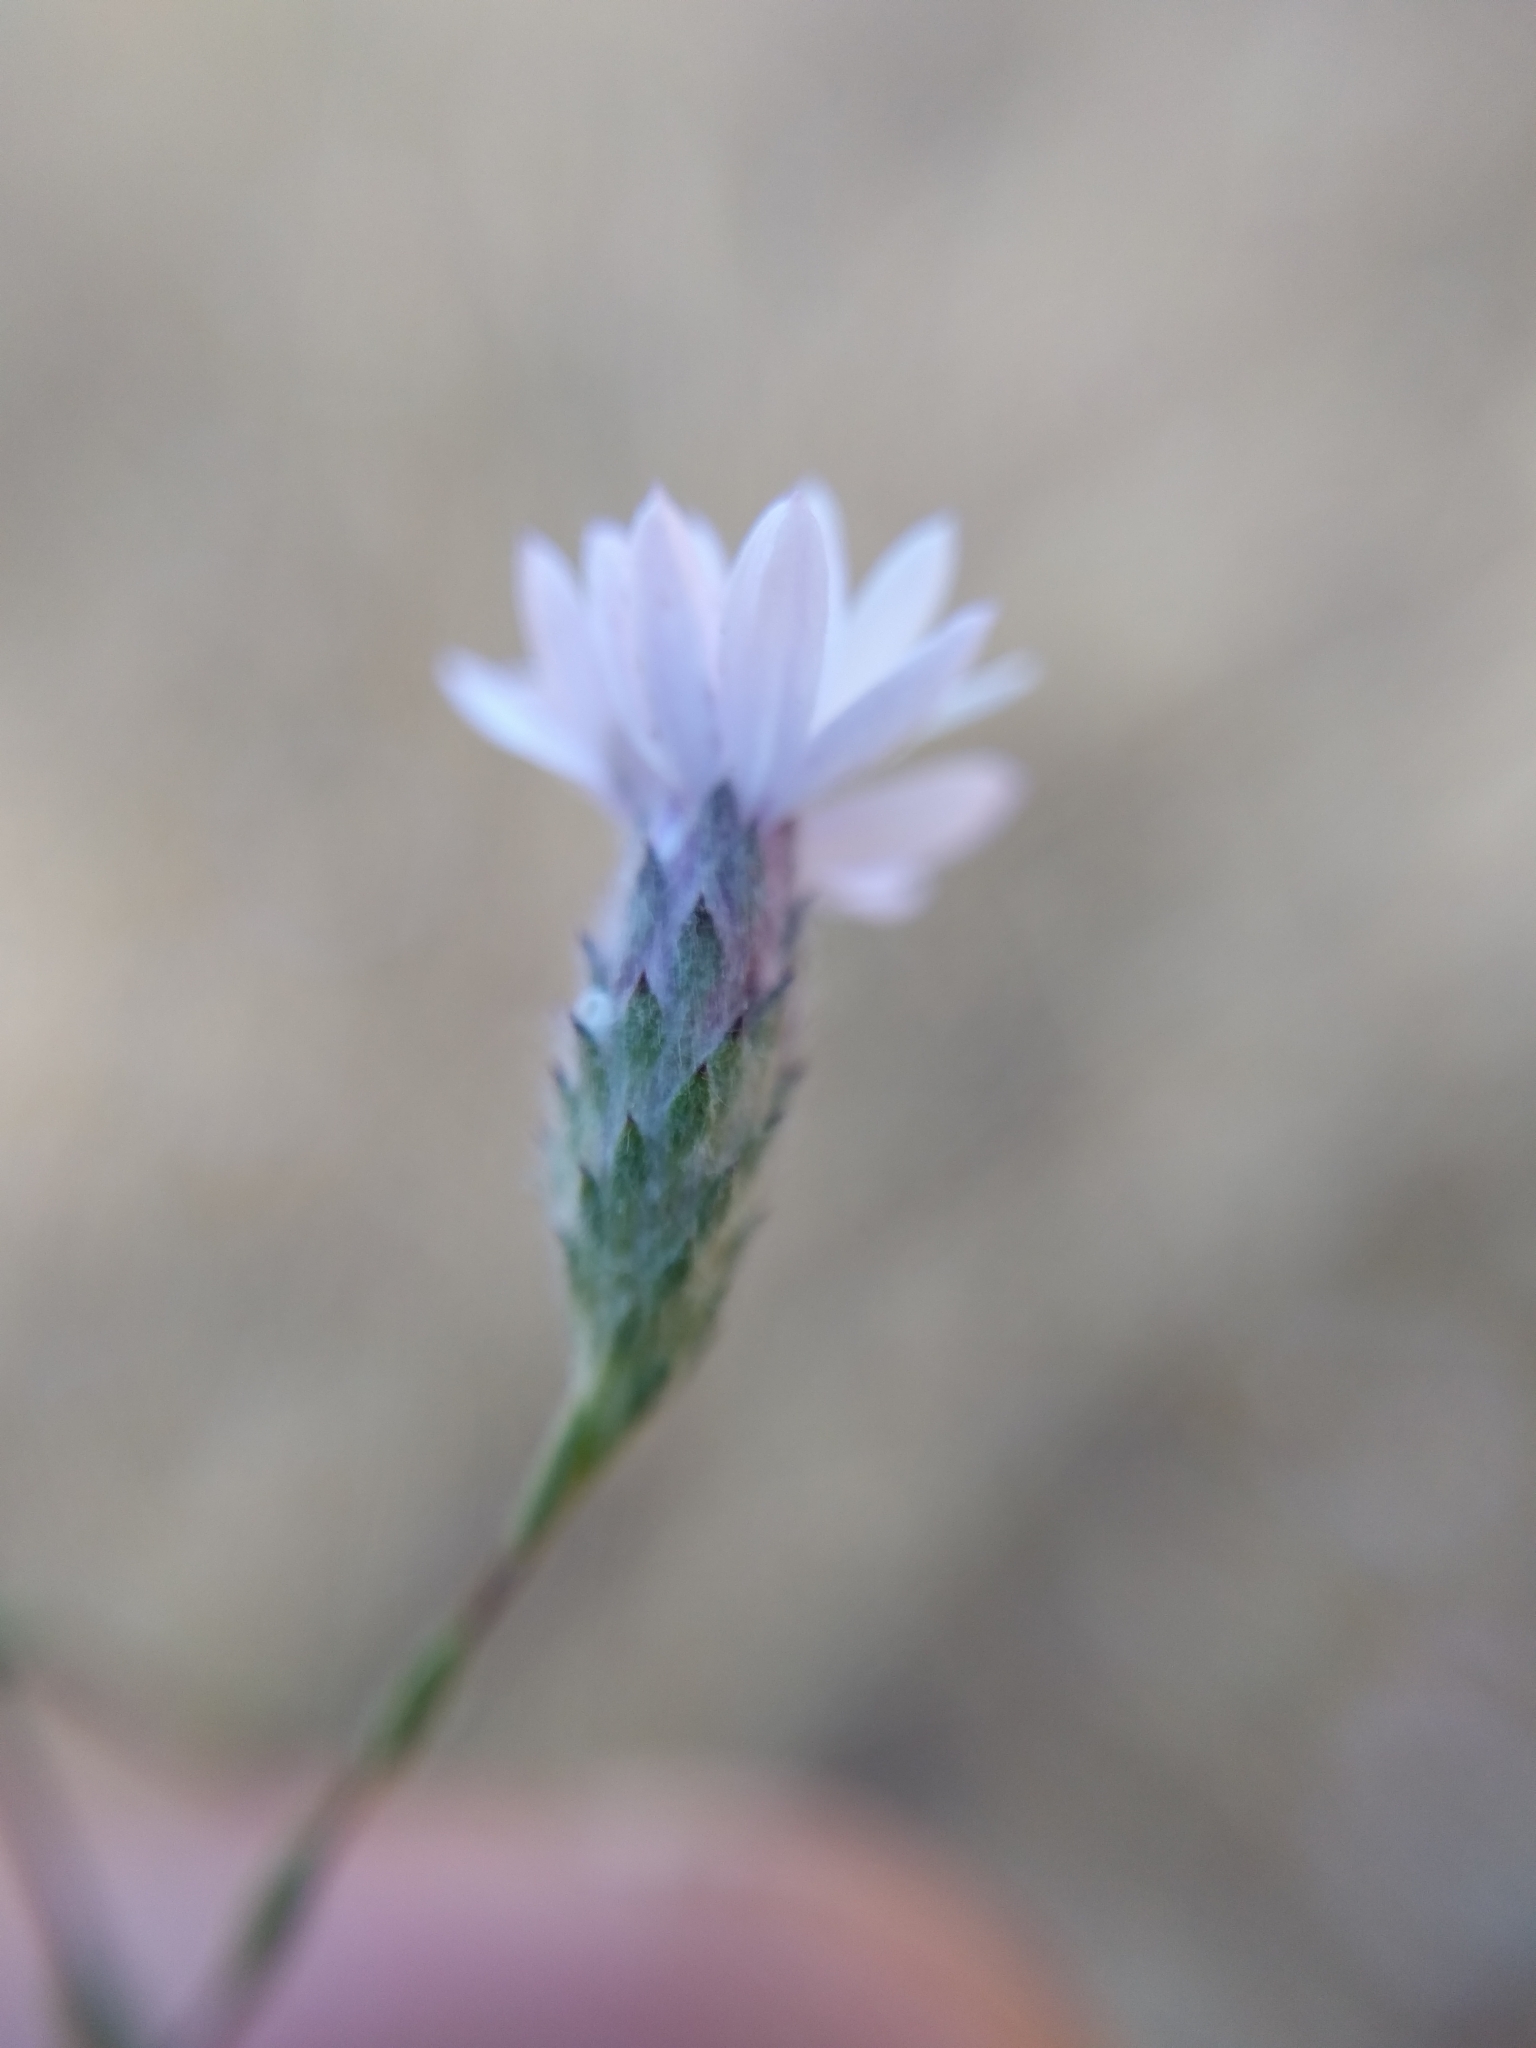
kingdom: Plantae
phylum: Tracheophyta
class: Magnoliopsida
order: Asterales
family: Asteraceae
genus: Lessingia
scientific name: Lessingia leptoclada
